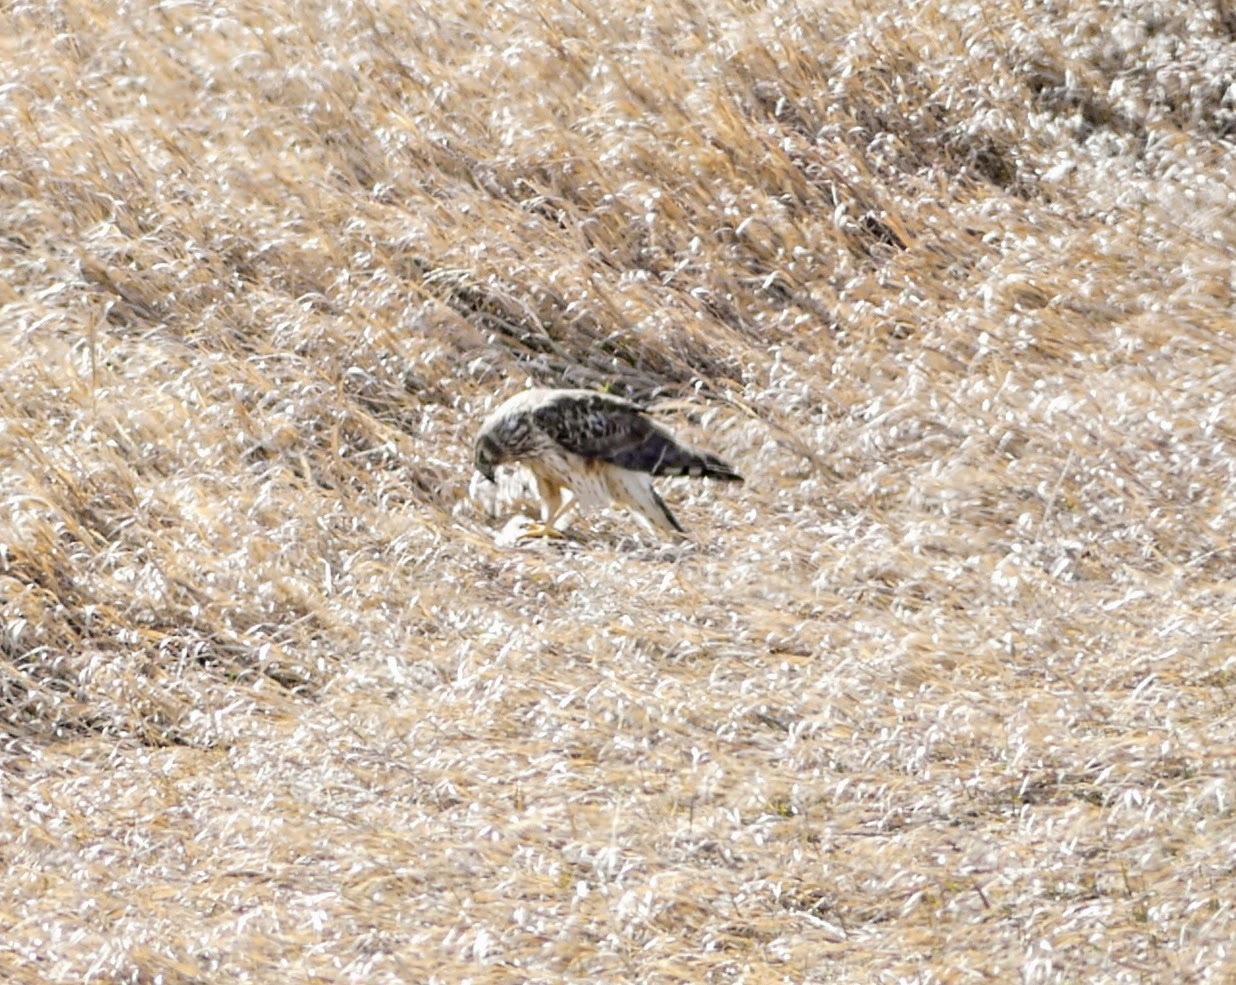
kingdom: Animalia
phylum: Chordata
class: Aves
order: Accipitriformes
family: Accipitridae
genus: Circus
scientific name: Circus cyaneus
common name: Hen harrier
